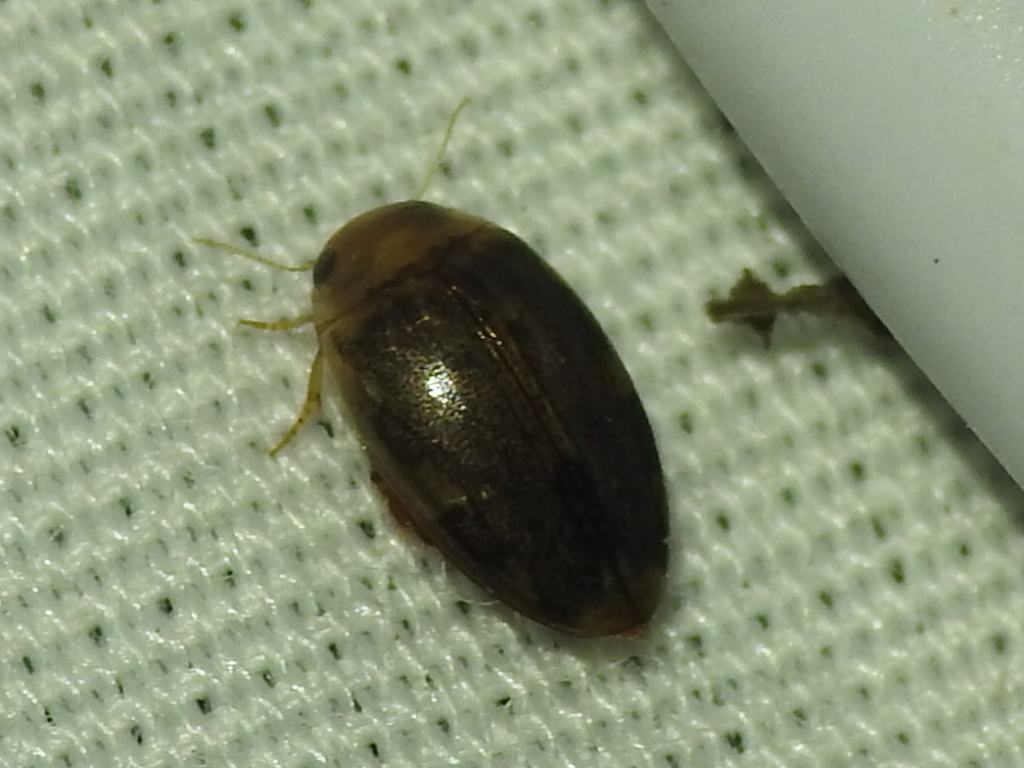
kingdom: Animalia
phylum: Arthropoda
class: Insecta
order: Coleoptera
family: Dytiscidae
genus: Laccophilus
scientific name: Laccophilus proximus
